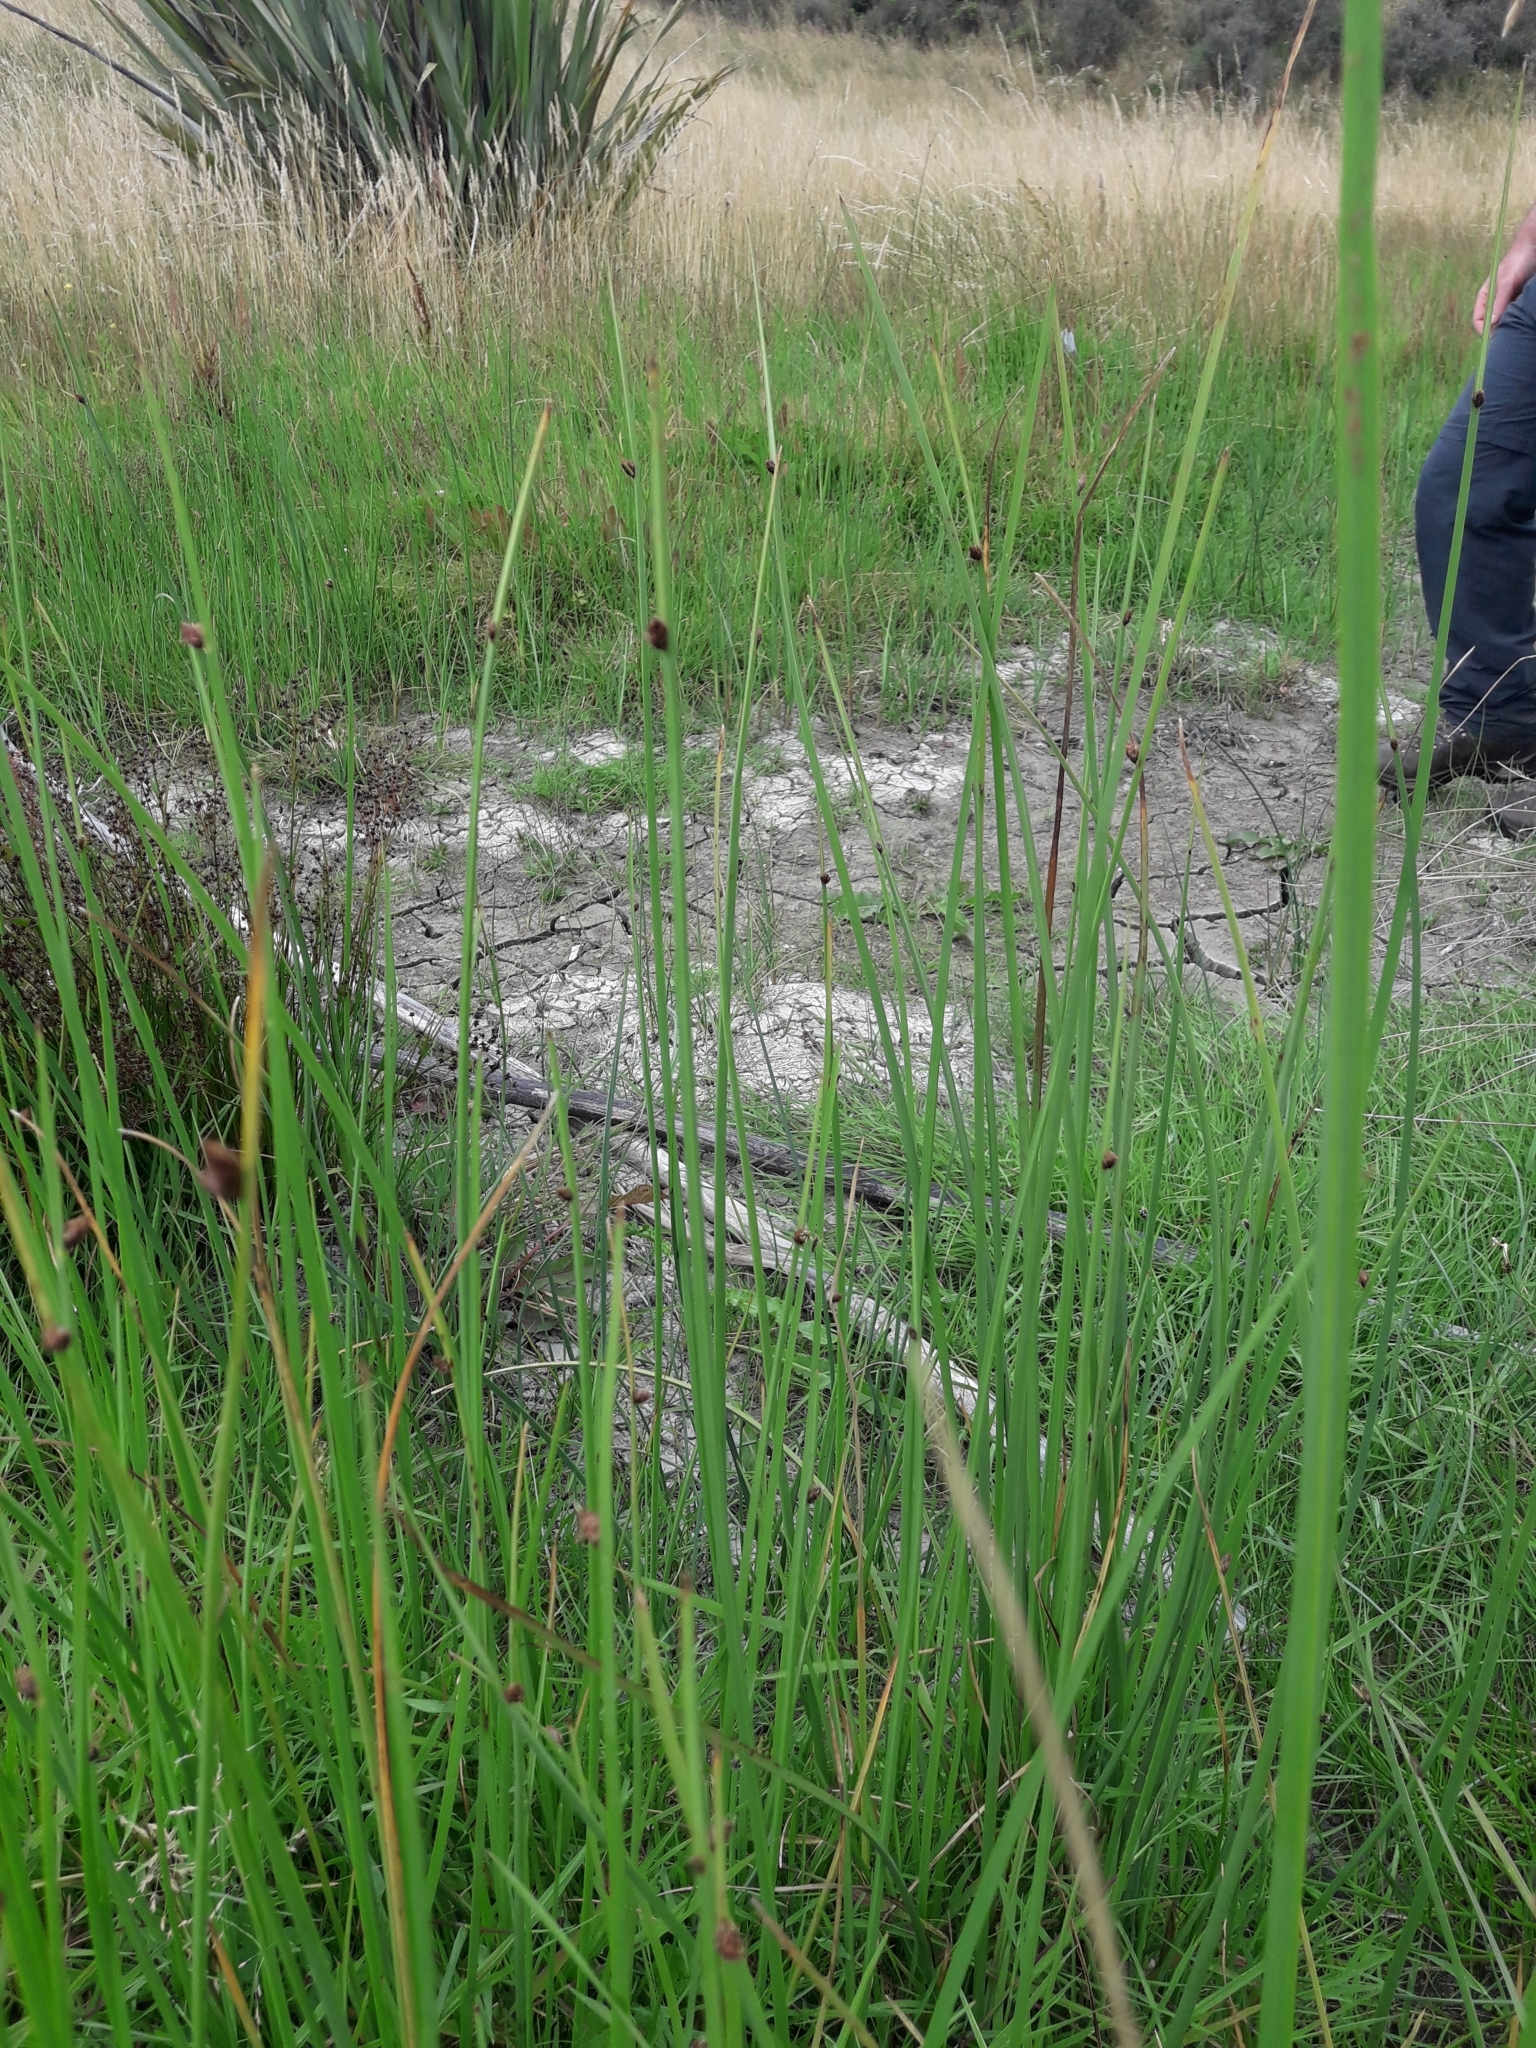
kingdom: Plantae
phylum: Tracheophyta
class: Liliopsida
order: Poales
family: Cyperaceae
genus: Schoenoplectus
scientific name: Schoenoplectus pungens
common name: Sharp club-rush
